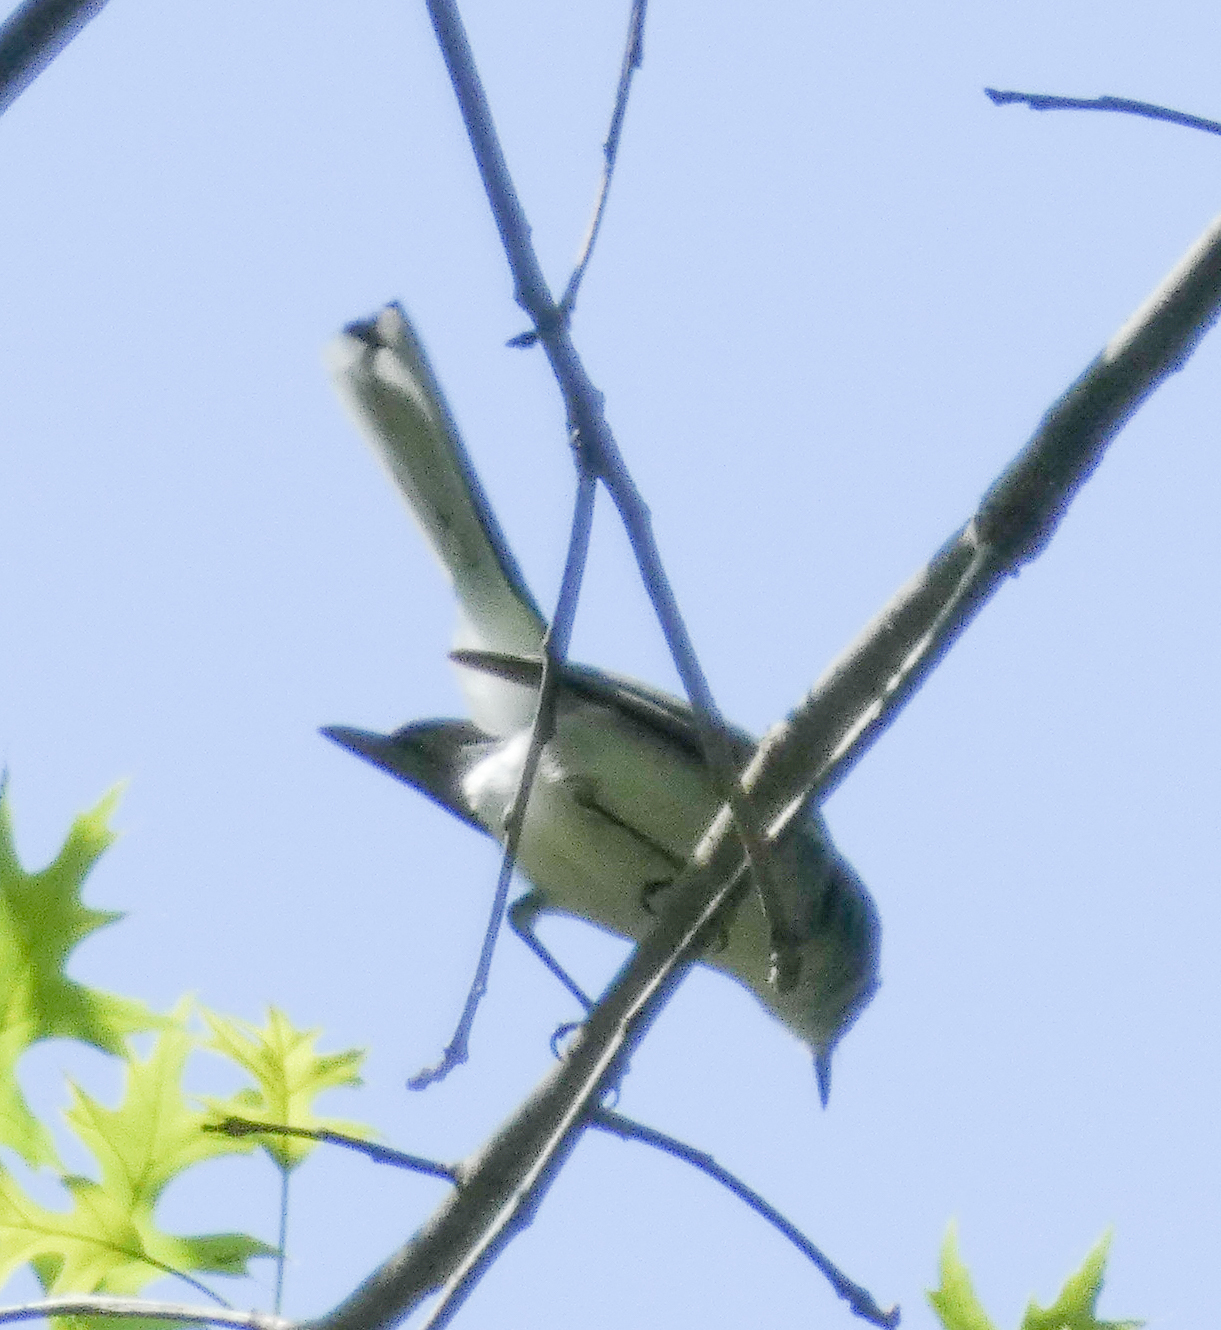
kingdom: Animalia
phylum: Chordata
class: Aves
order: Passeriformes
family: Polioptilidae
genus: Polioptila
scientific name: Polioptila caerulea
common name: Blue-gray gnatcatcher
